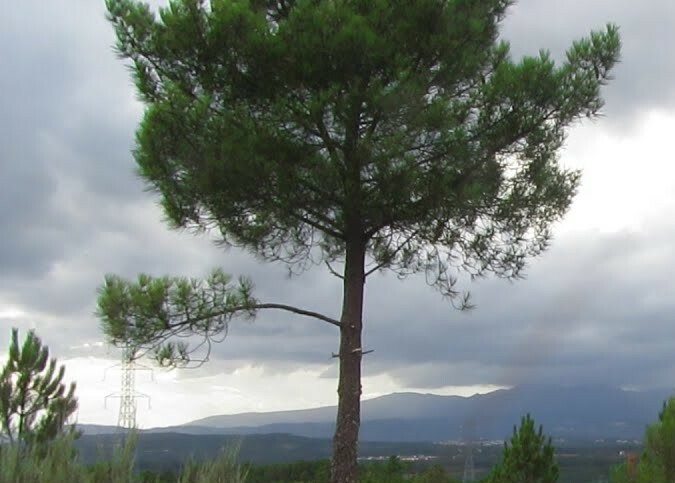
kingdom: Plantae
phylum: Tracheophyta
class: Pinopsida
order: Pinales
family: Pinaceae
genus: Pinus
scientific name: Pinus pinaster
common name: Maritime pine
